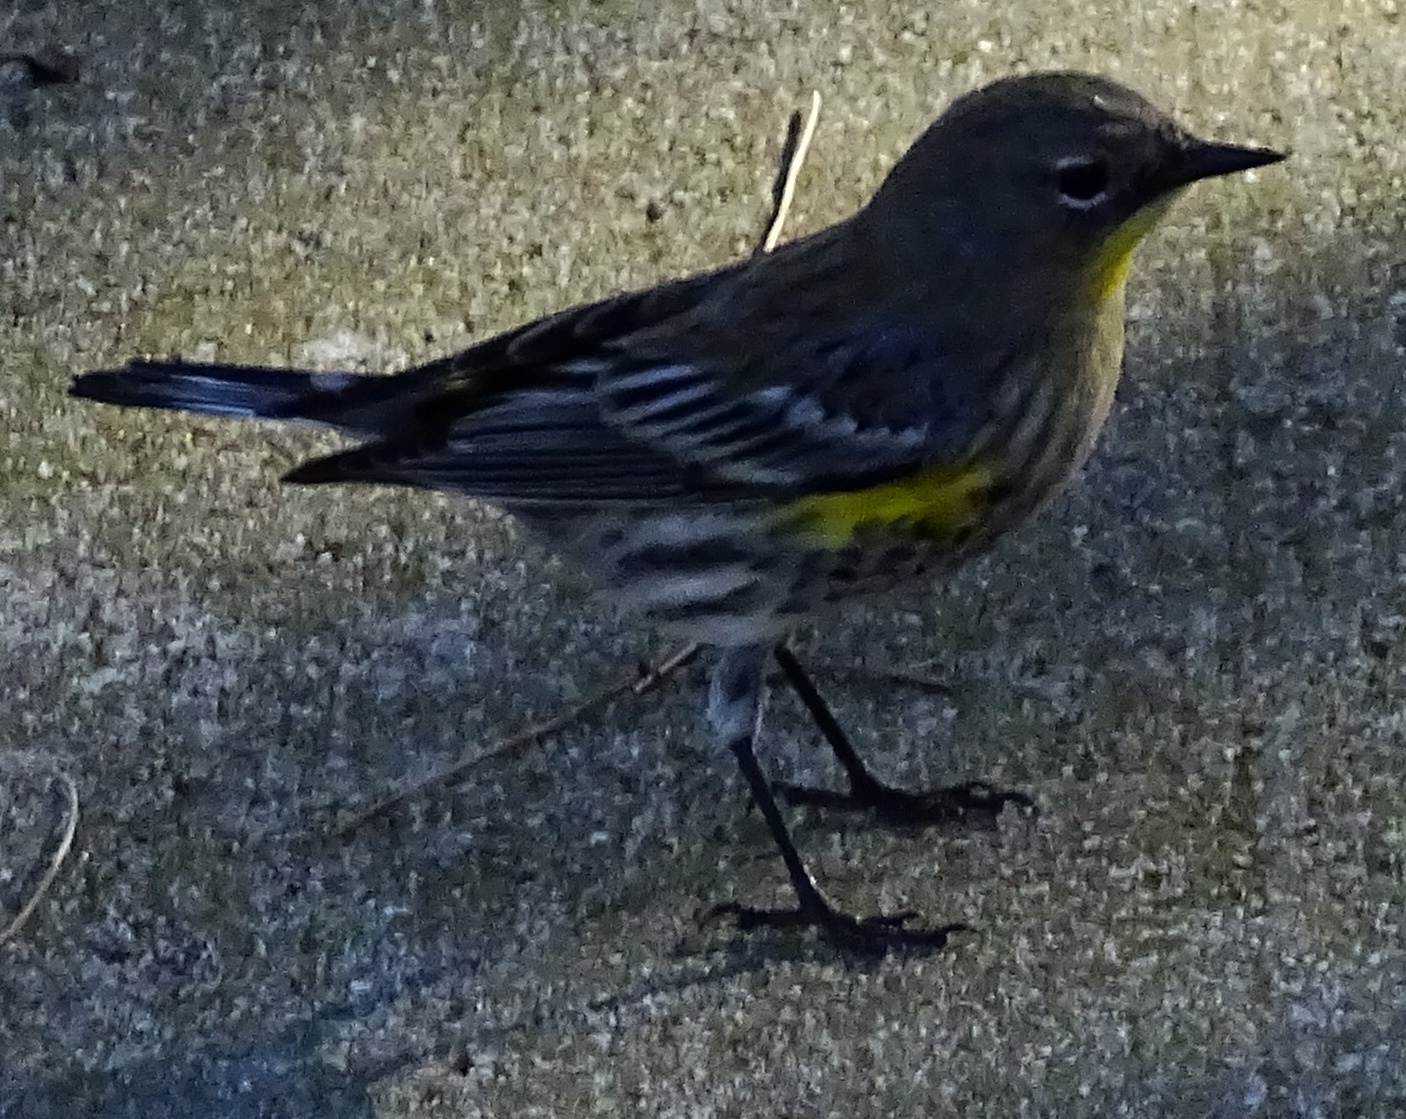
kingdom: Animalia
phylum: Chordata
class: Aves
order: Passeriformes
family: Parulidae
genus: Setophaga
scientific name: Setophaga auduboni
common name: Audubon's warbler
